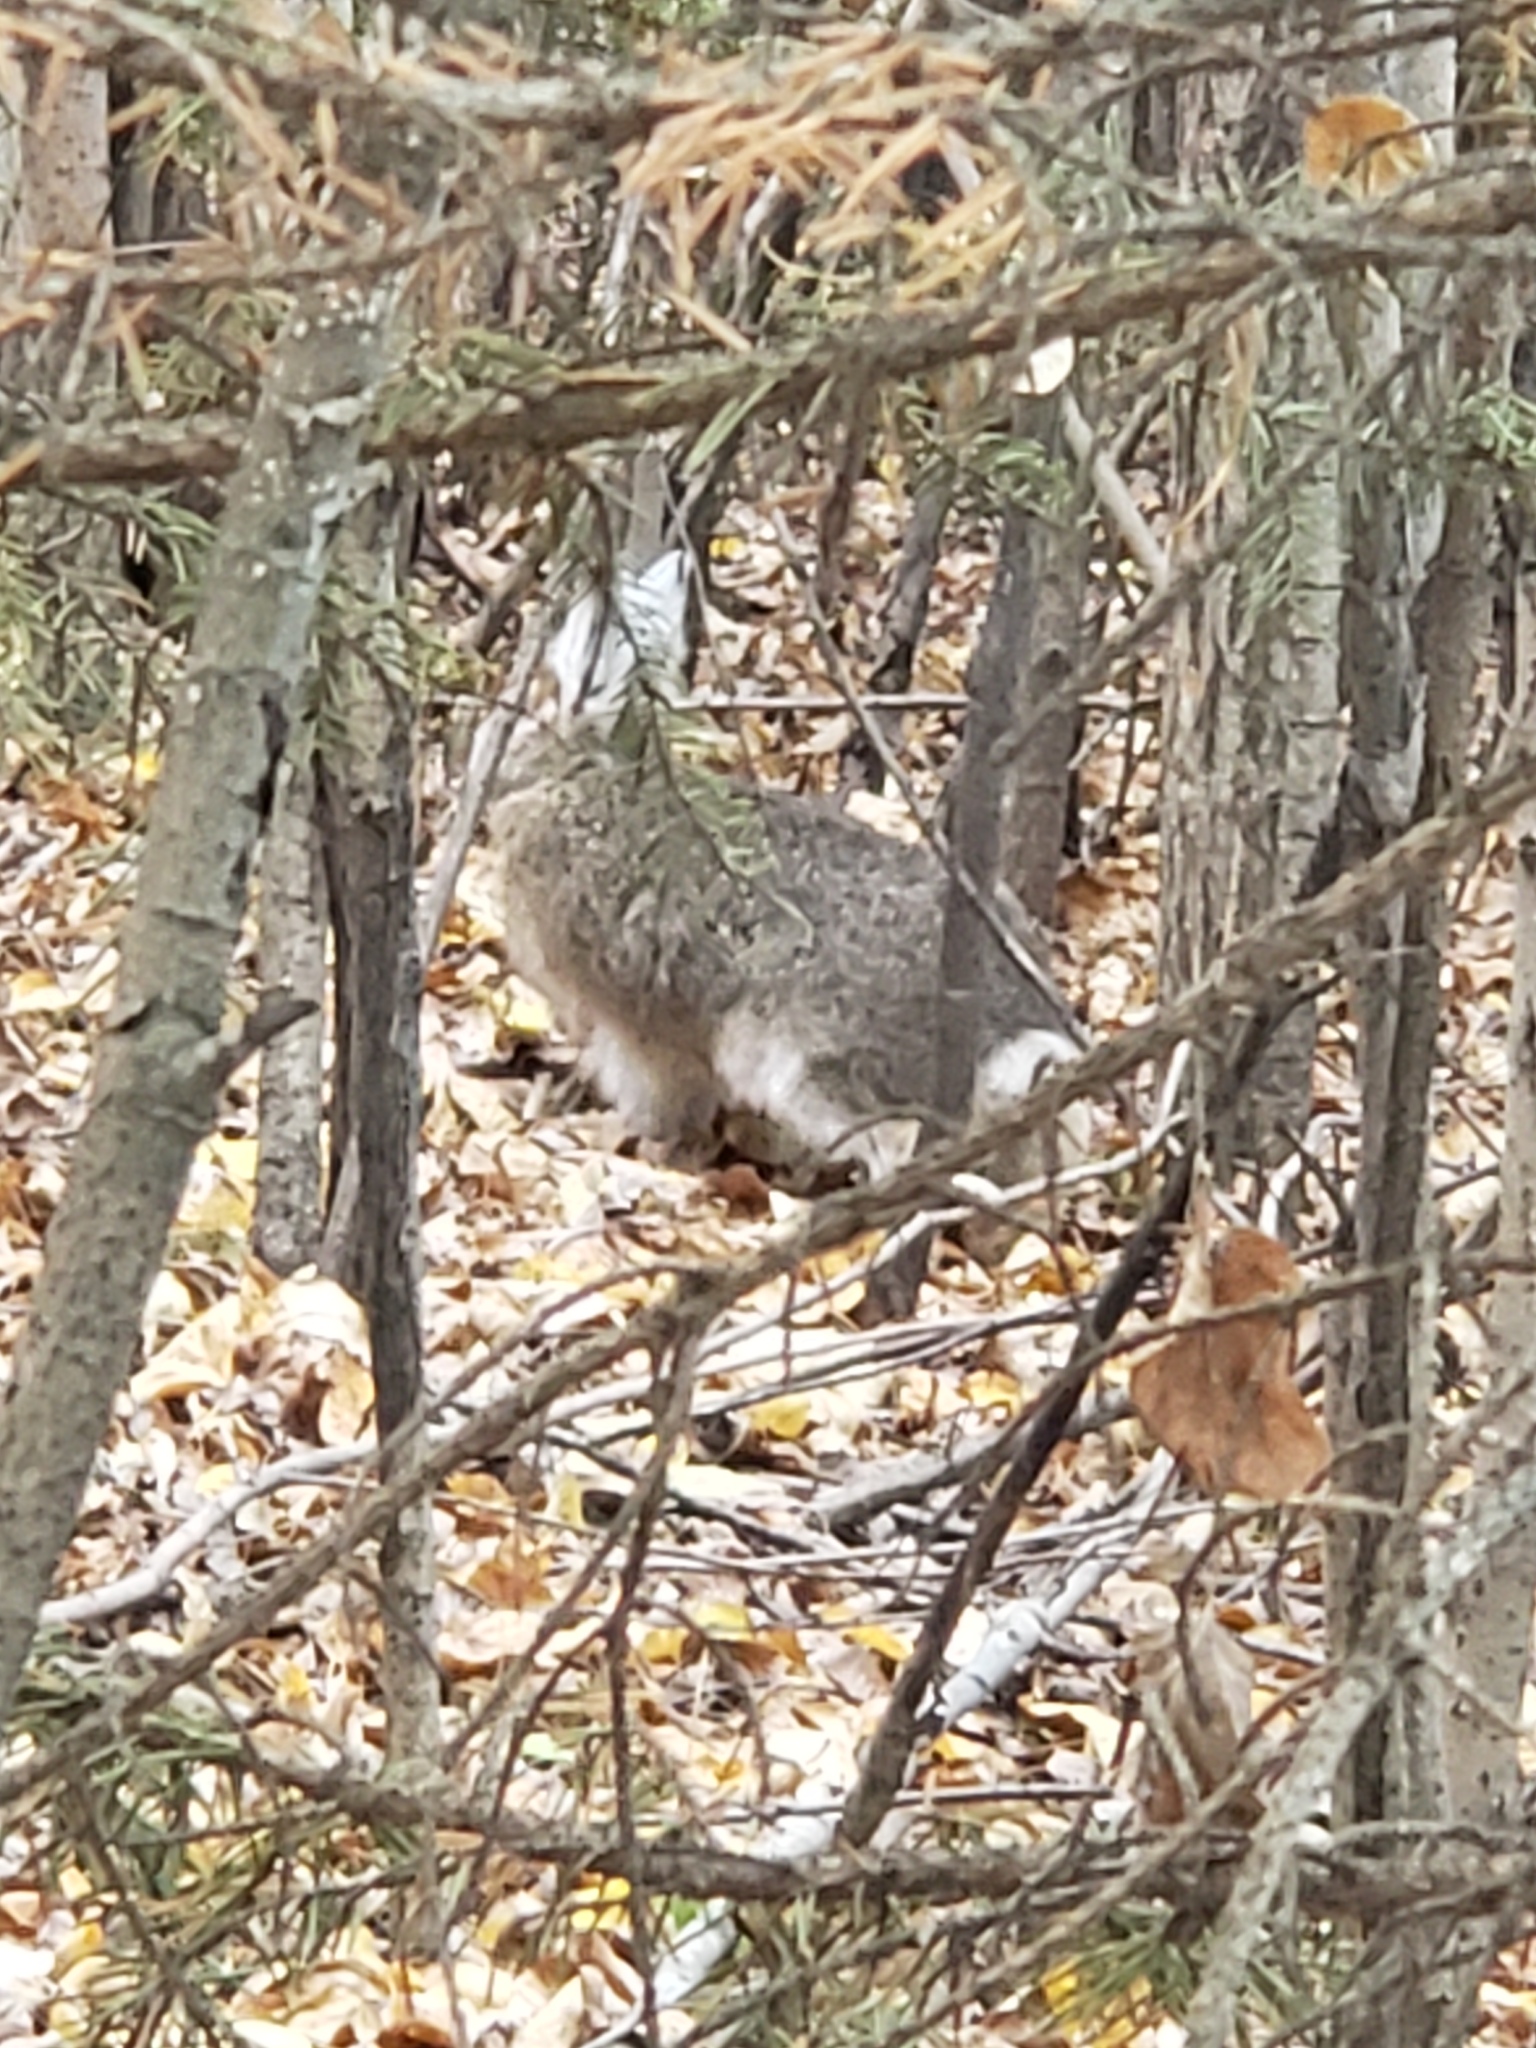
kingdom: Animalia
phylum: Chordata
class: Mammalia
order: Lagomorpha
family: Leporidae
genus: Lepus
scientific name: Lepus americanus
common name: Snowshoe hare
